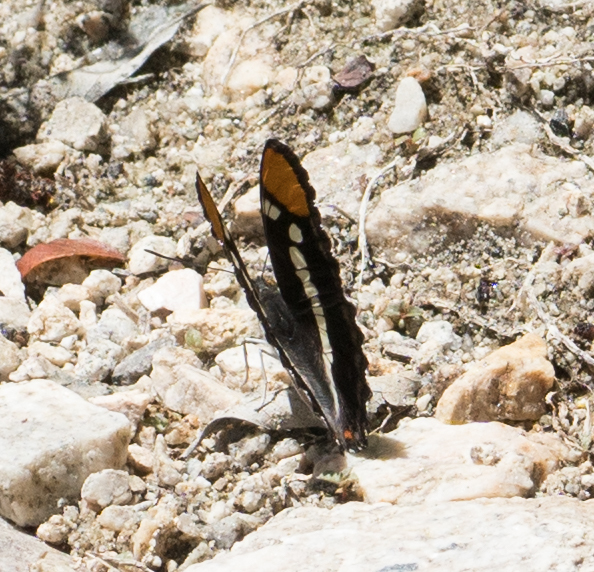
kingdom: Animalia
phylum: Arthropoda
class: Insecta
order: Lepidoptera
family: Nymphalidae
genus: Limenitis
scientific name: Limenitis bredowii
